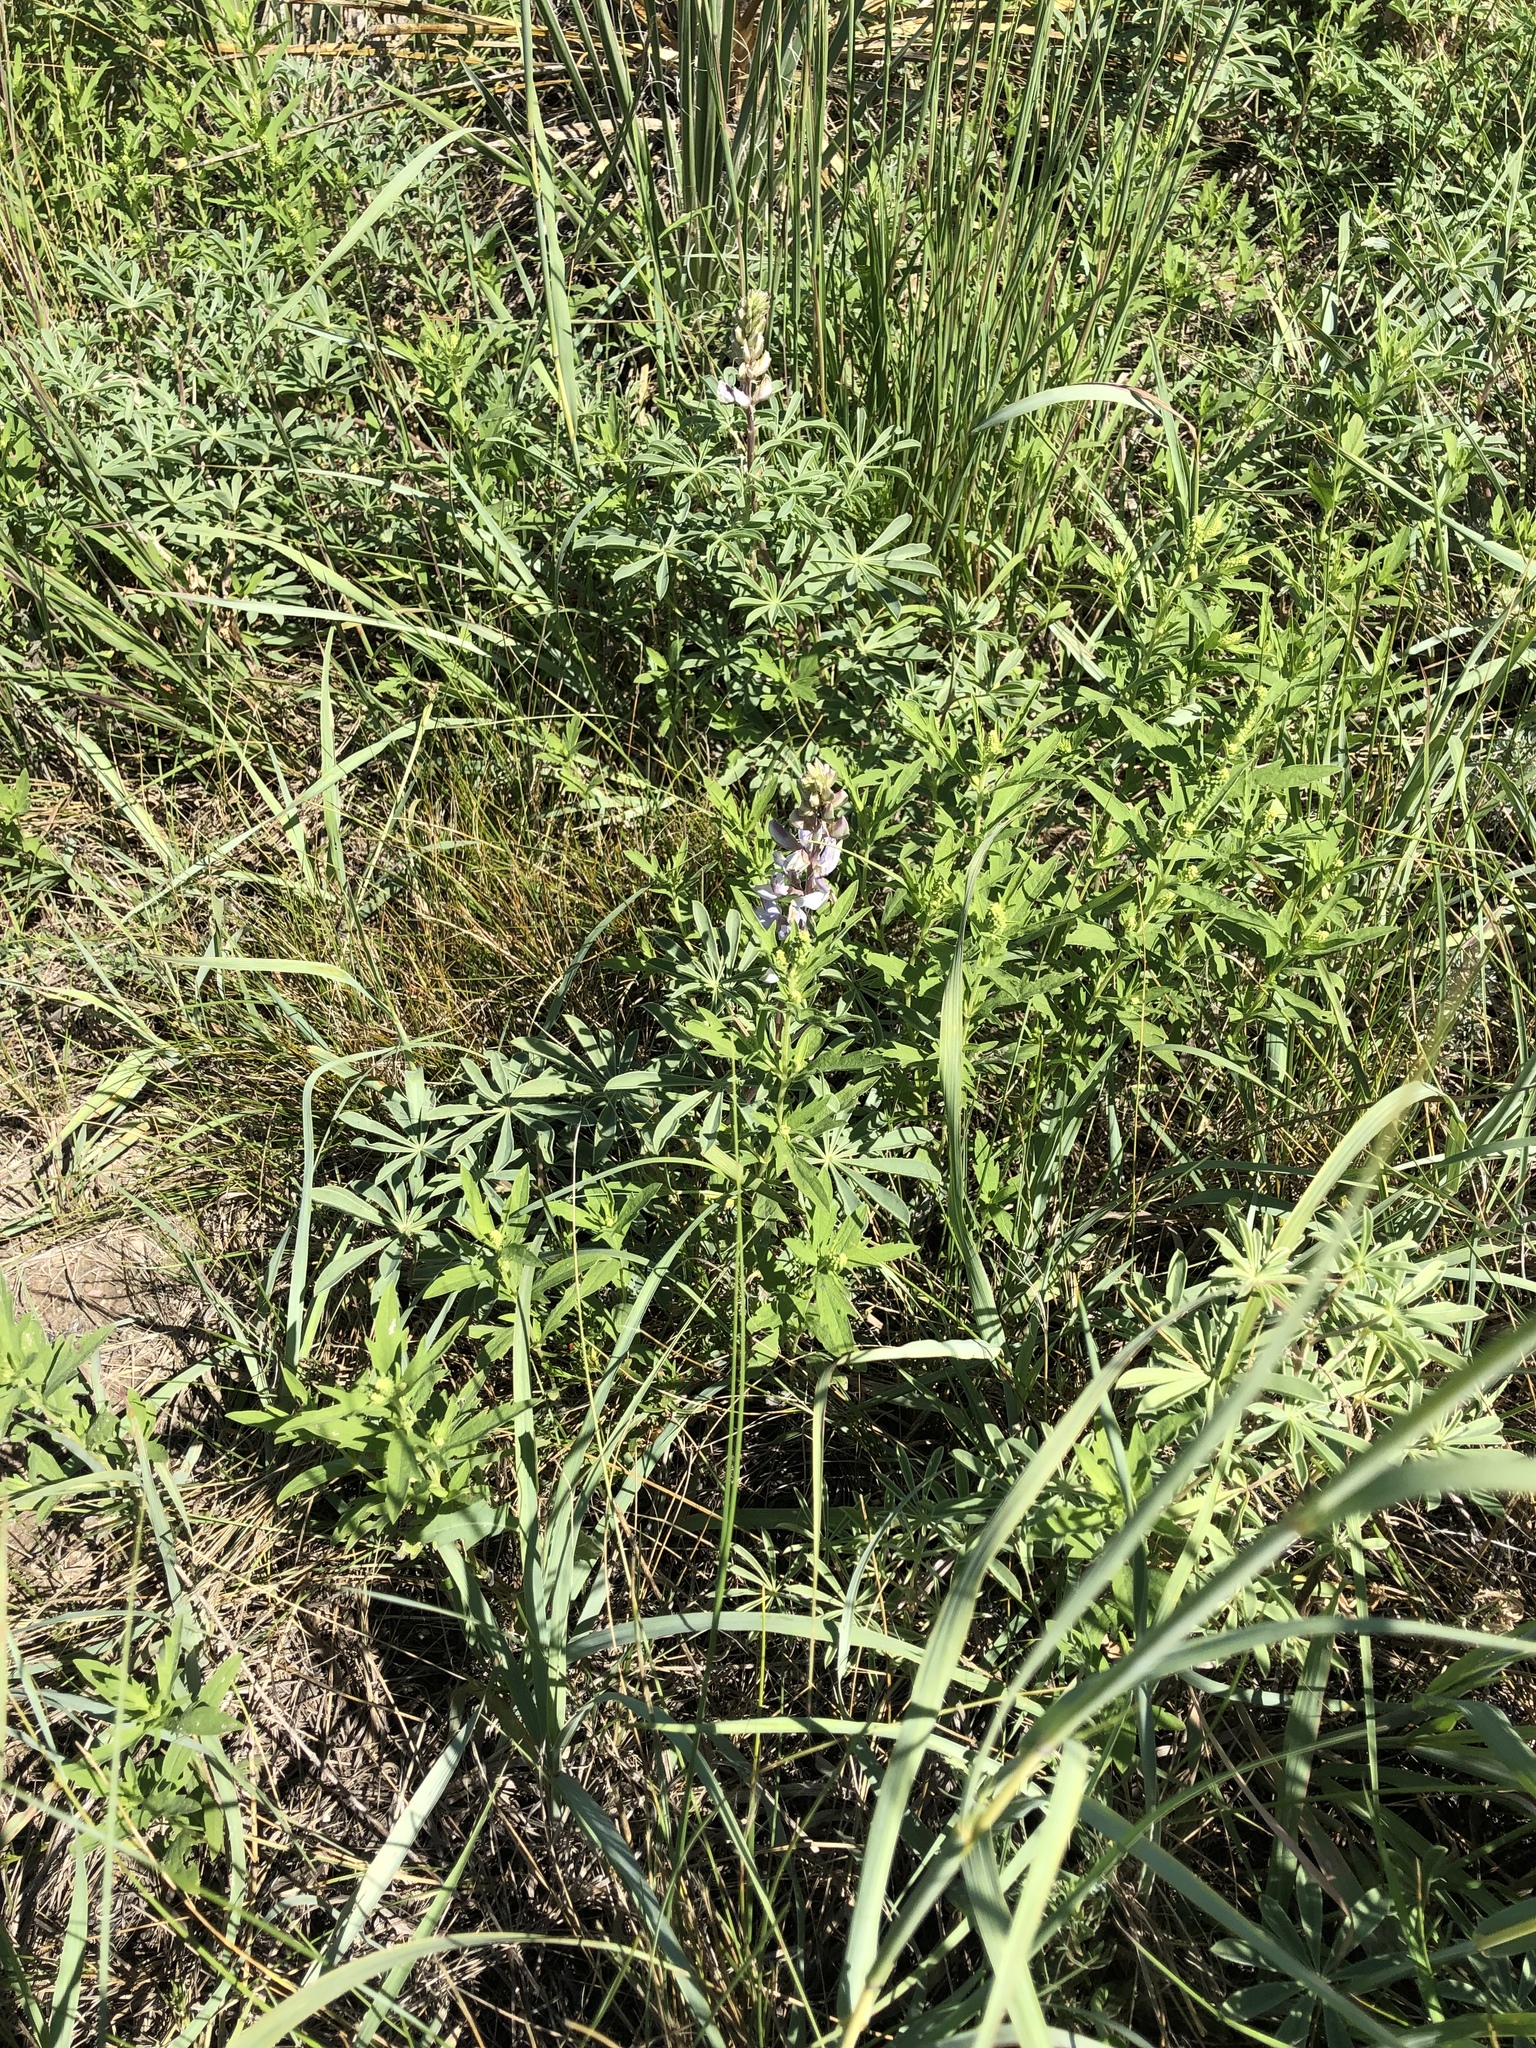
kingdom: Plantae
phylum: Tracheophyta
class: Magnoliopsida
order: Fabales
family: Fabaceae
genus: Lupinus
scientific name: Lupinus argenteus
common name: Silvery lupine
